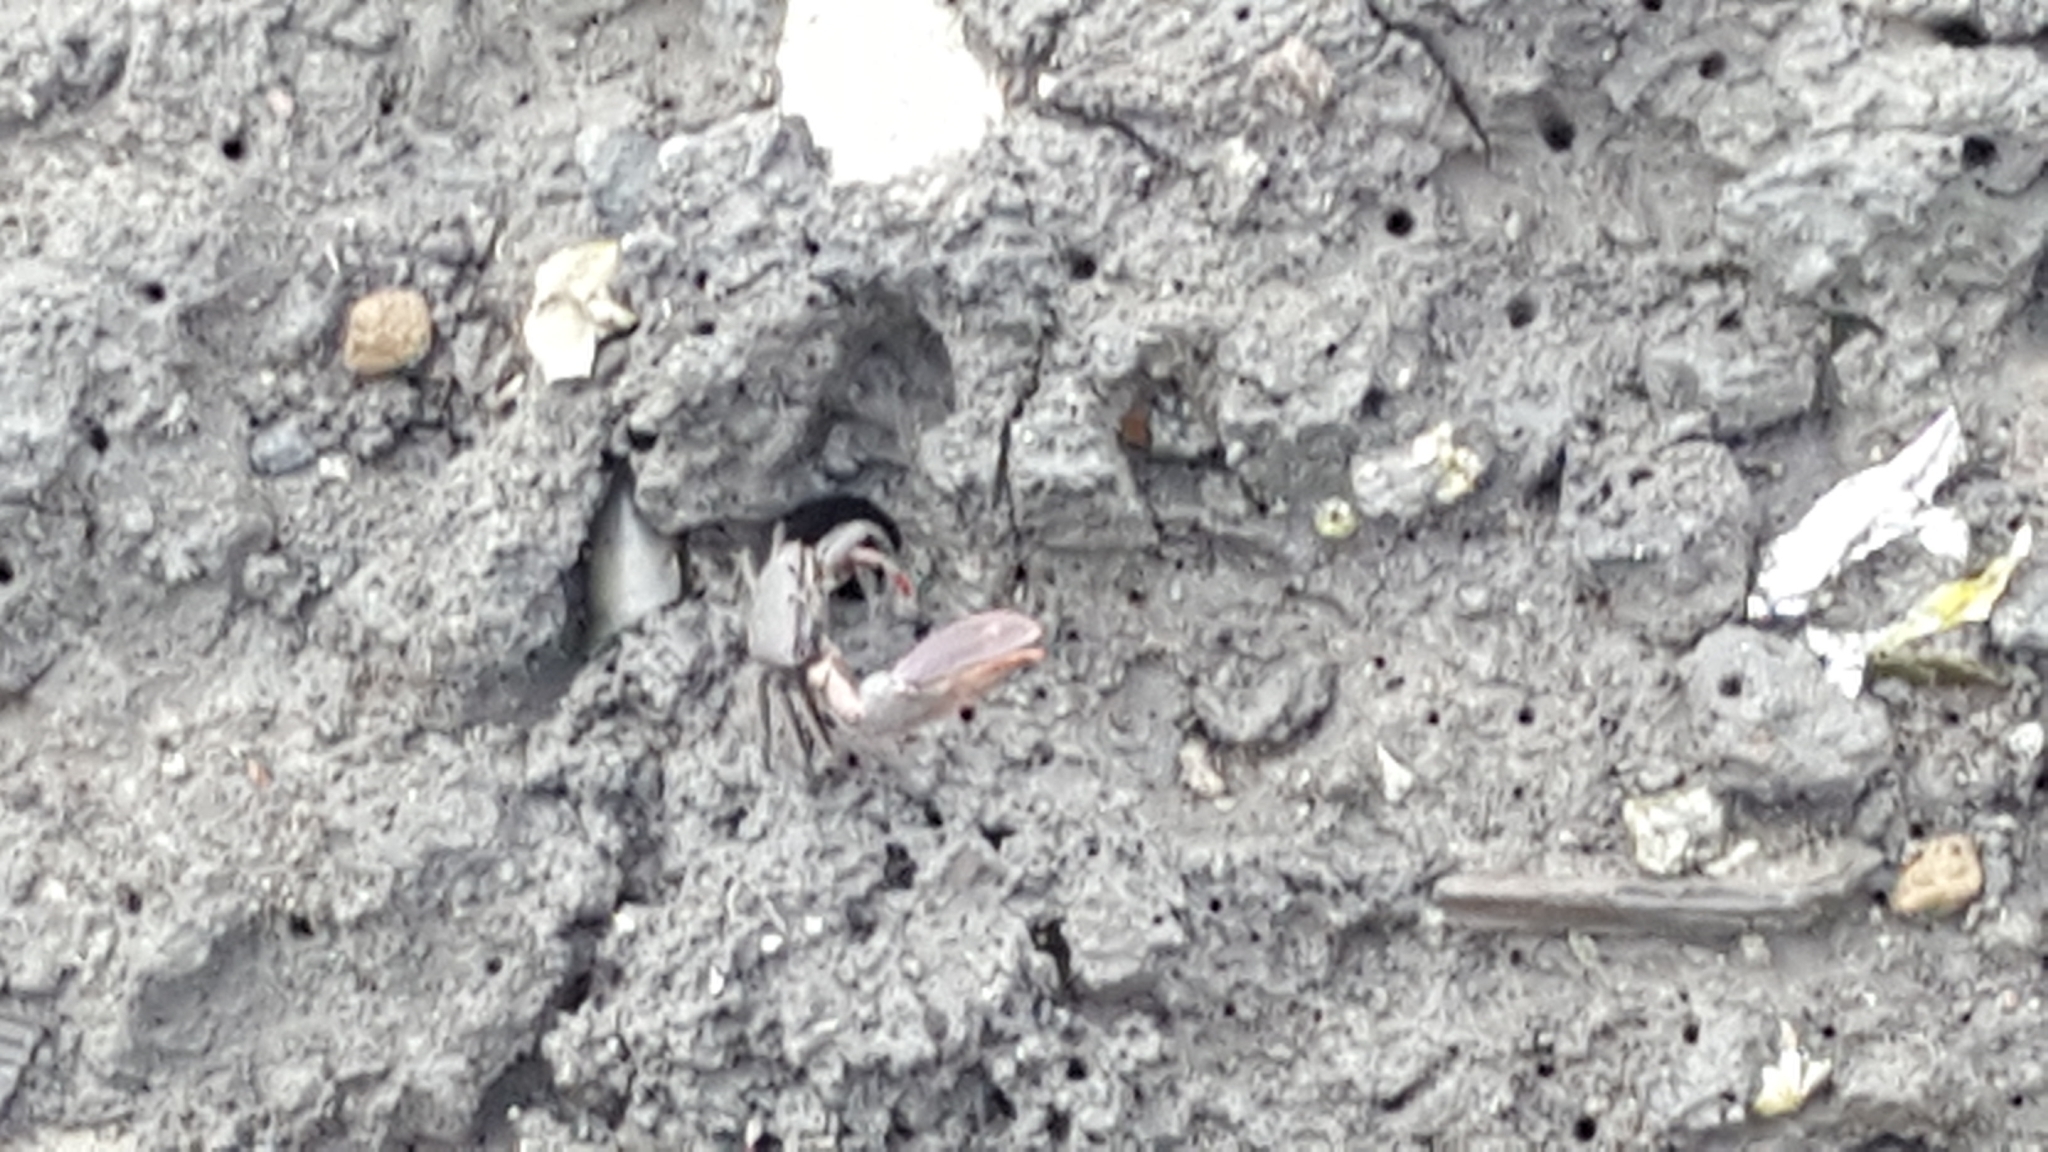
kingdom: Animalia
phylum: Arthropoda
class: Malacostraca
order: Decapoda
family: Ocypodidae
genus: Uca
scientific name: Uca maracoani
